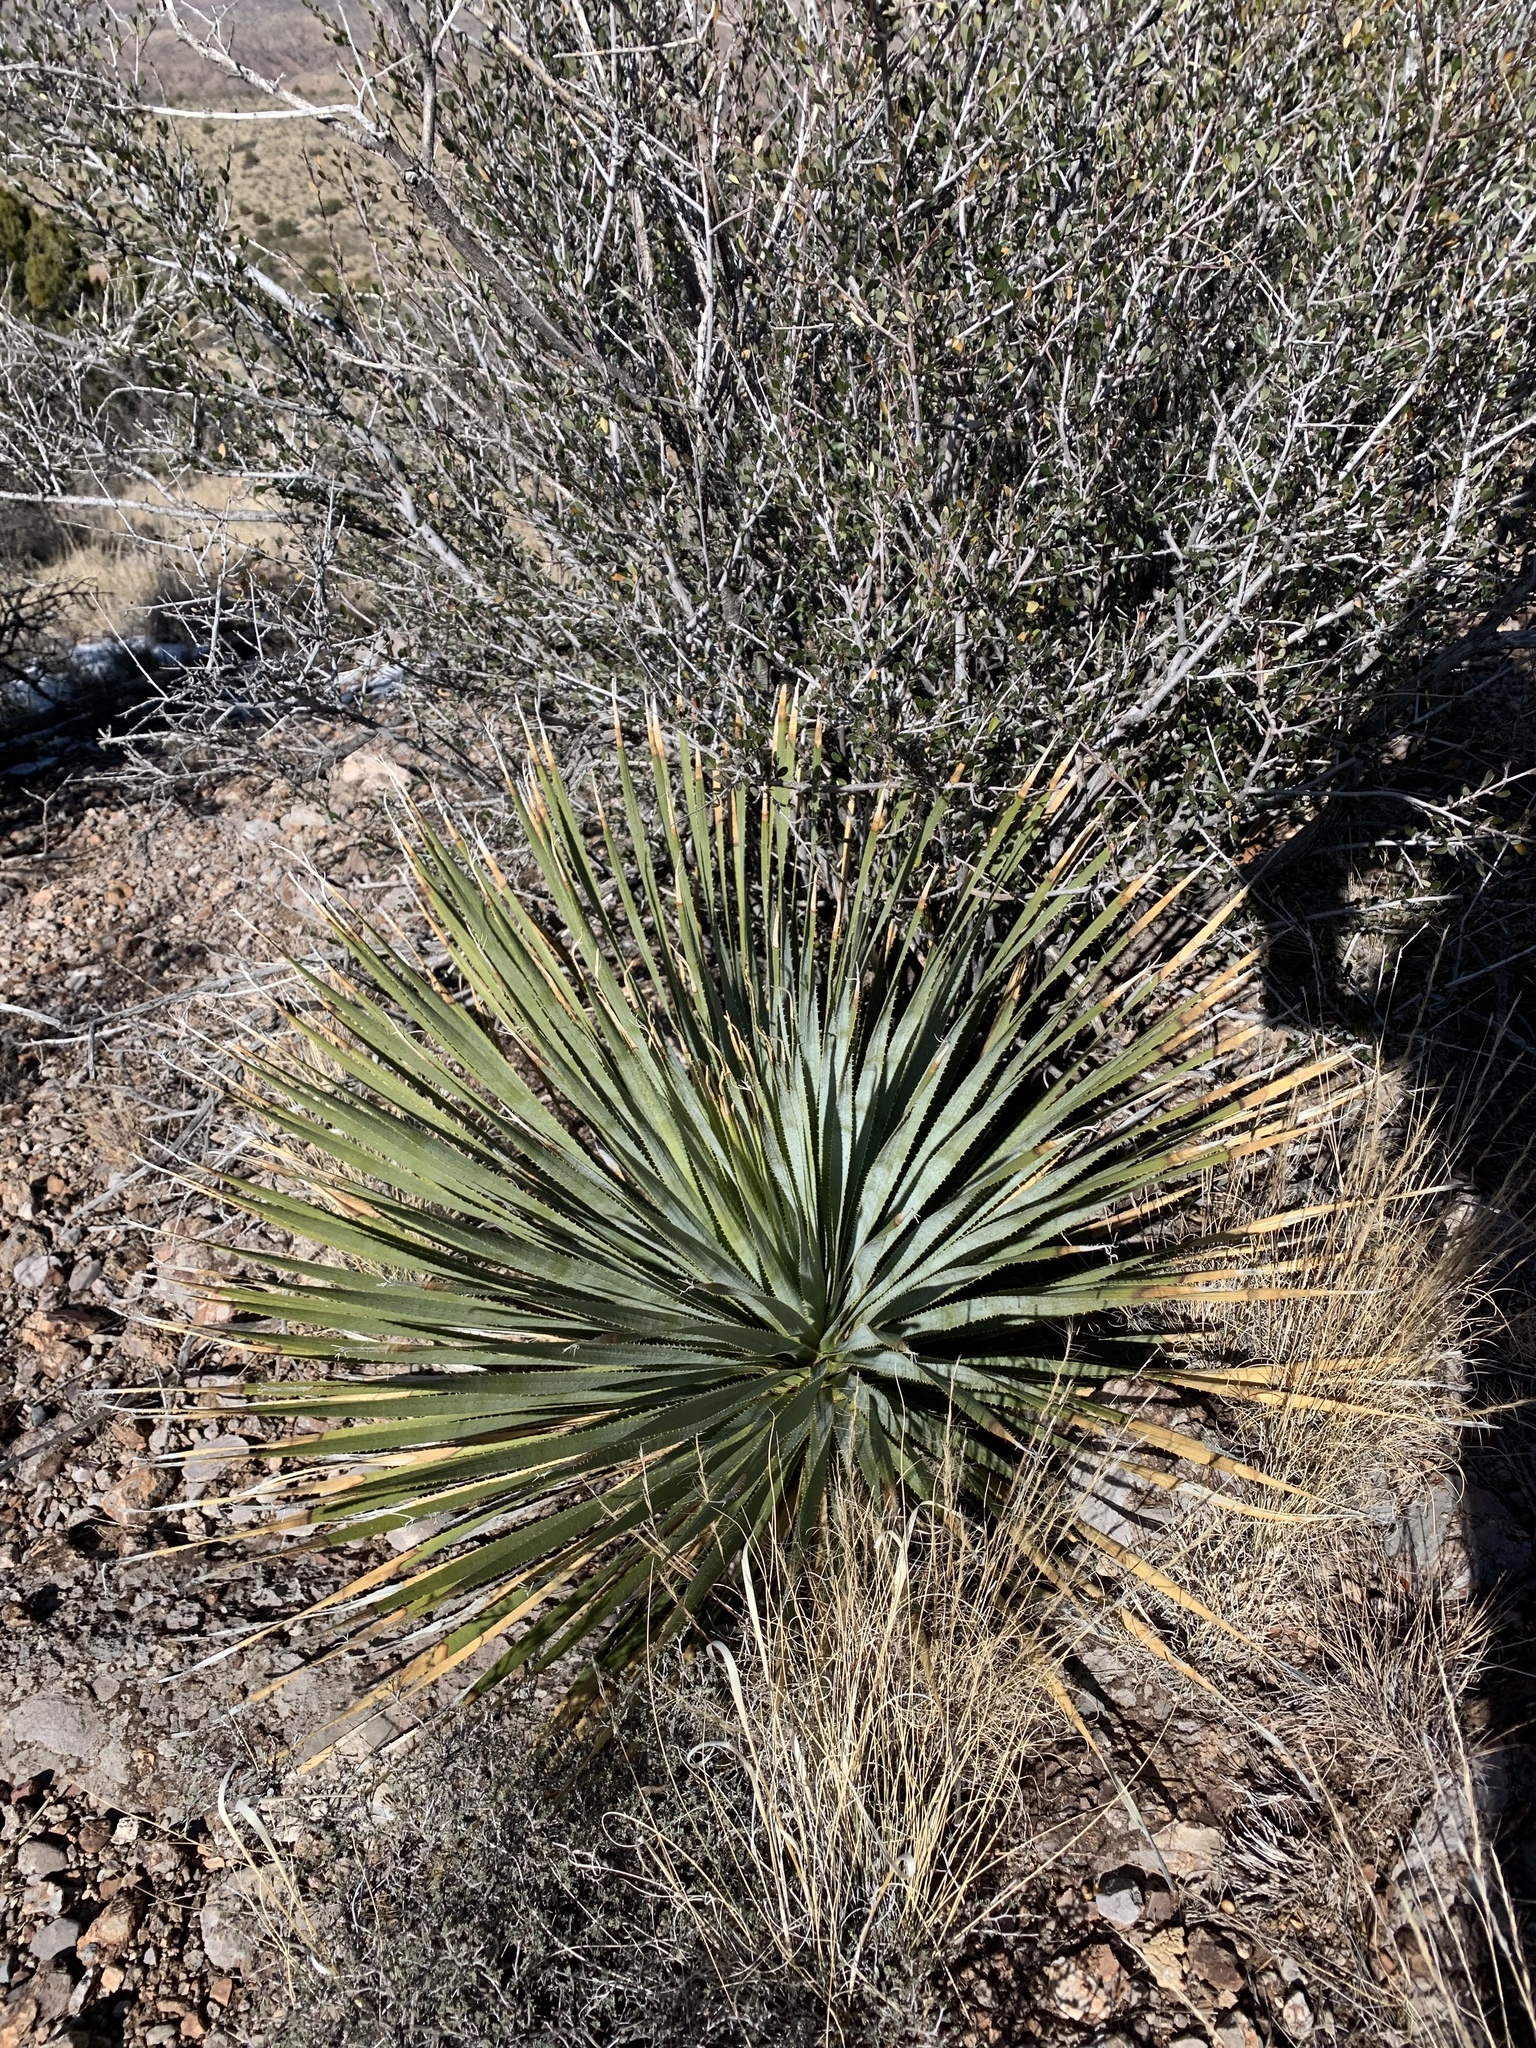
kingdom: Plantae
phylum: Tracheophyta
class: Liliopsida
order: Asparagales
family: Asparagaceae
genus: Dasylirion
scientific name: Dasylirion wheeleri
